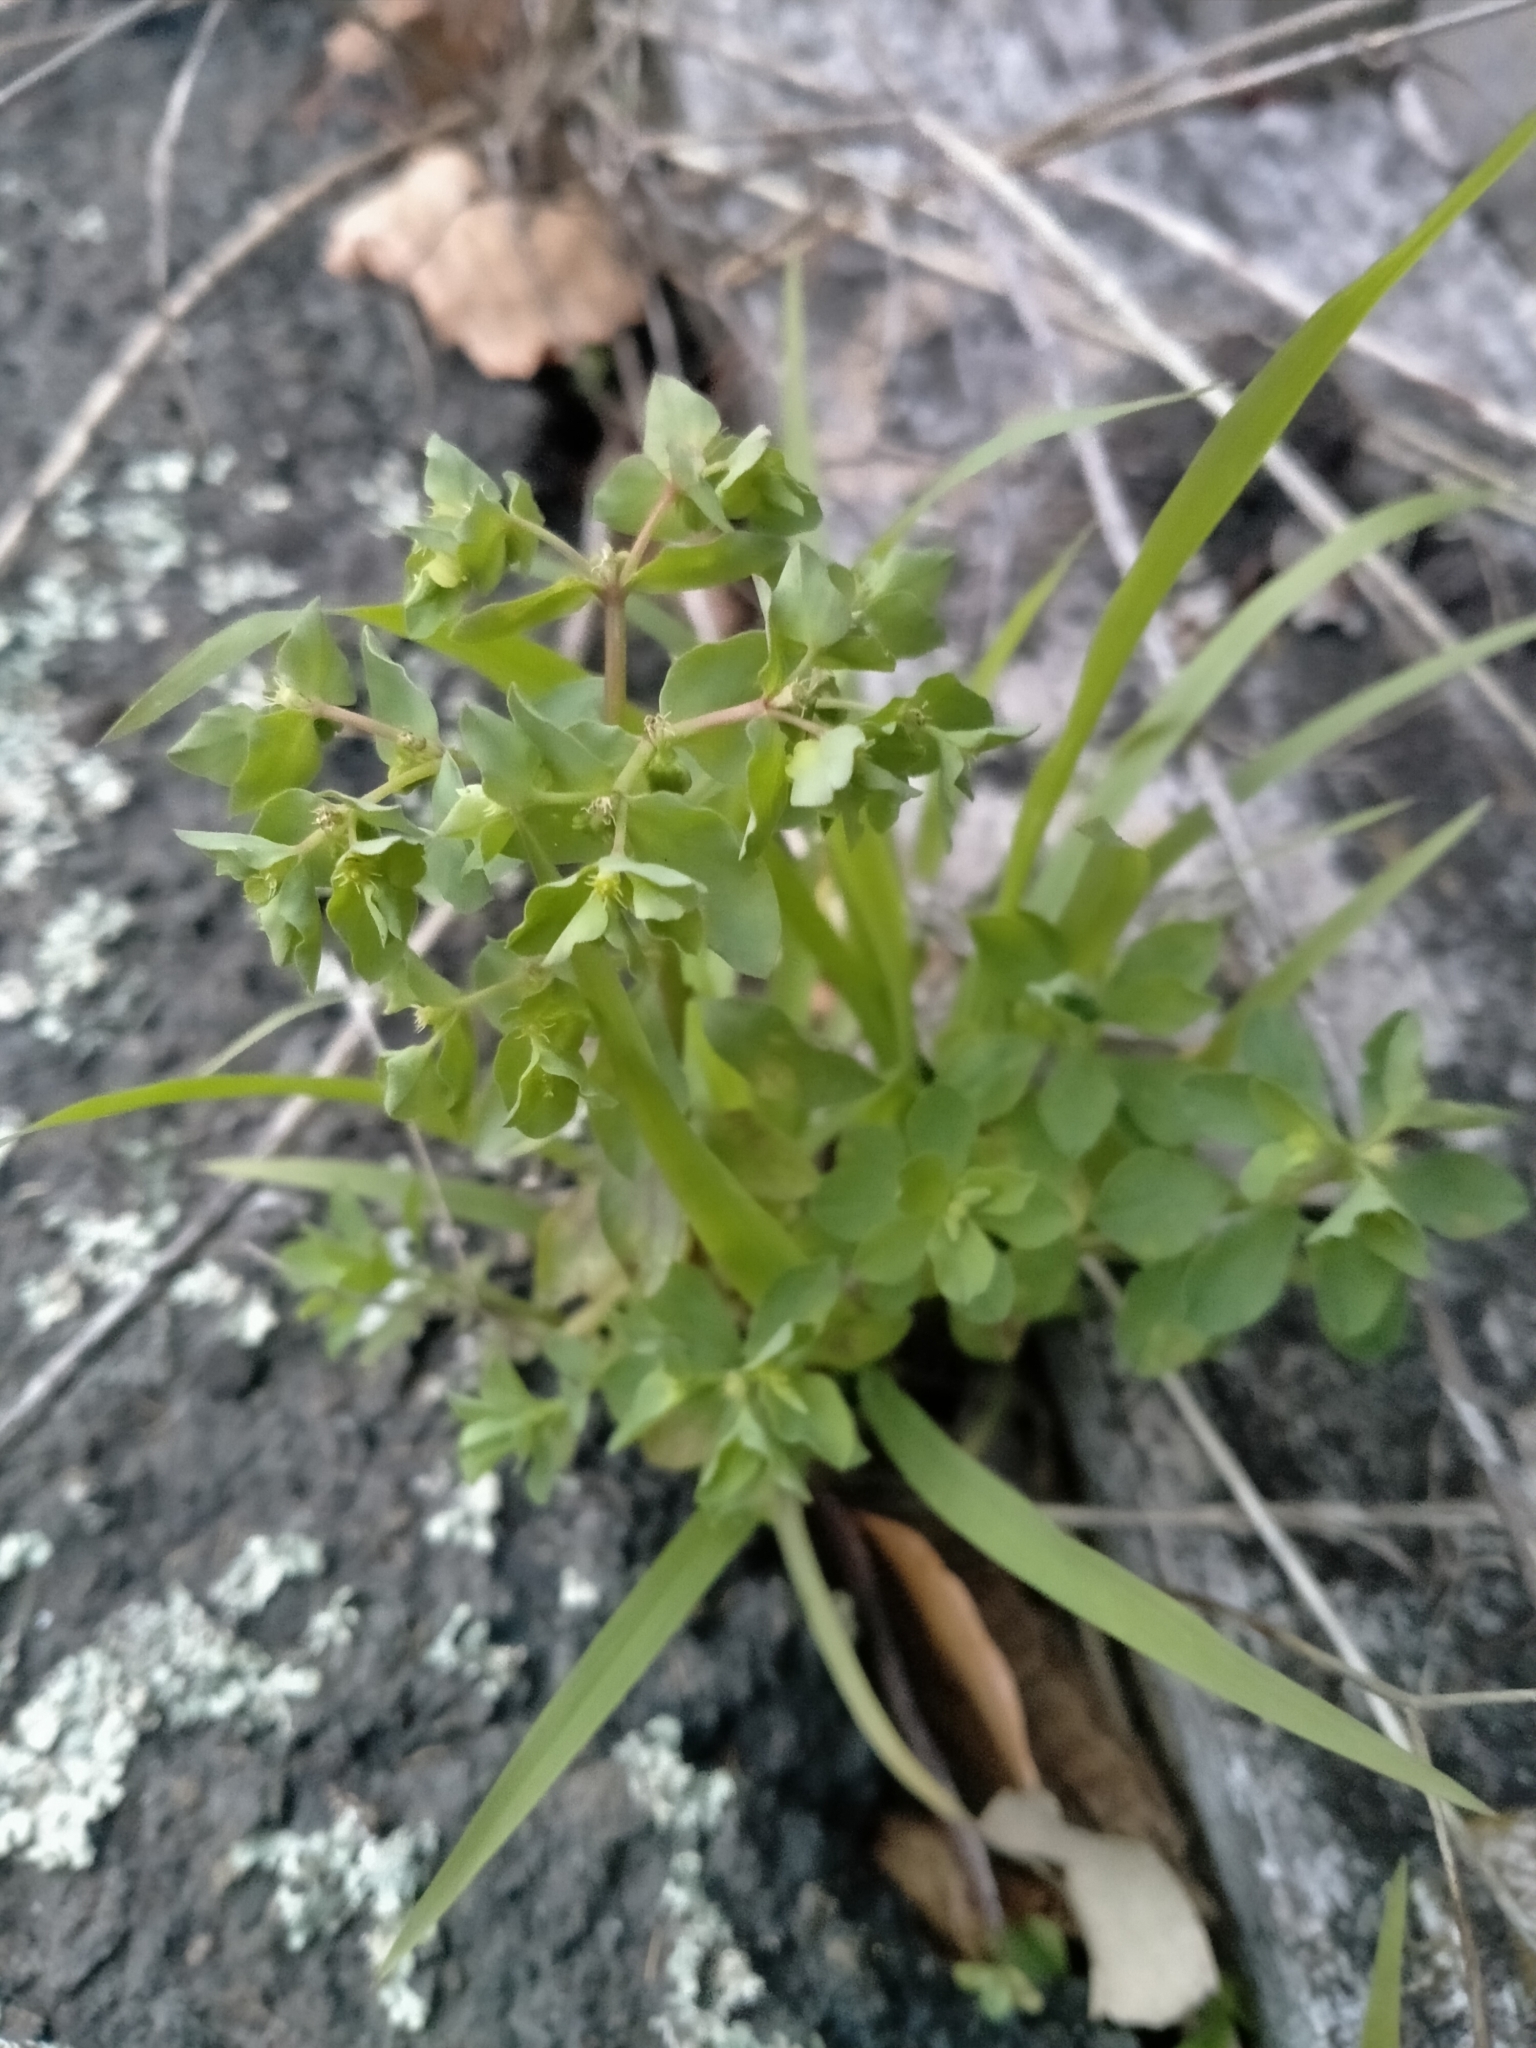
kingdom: Plantae
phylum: Tracheophyta
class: Magnoliopsida
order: Malpighiales
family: Euphorbiaceae
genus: Euphorbia
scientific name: Euphorbia peplus
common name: Petty spurge
